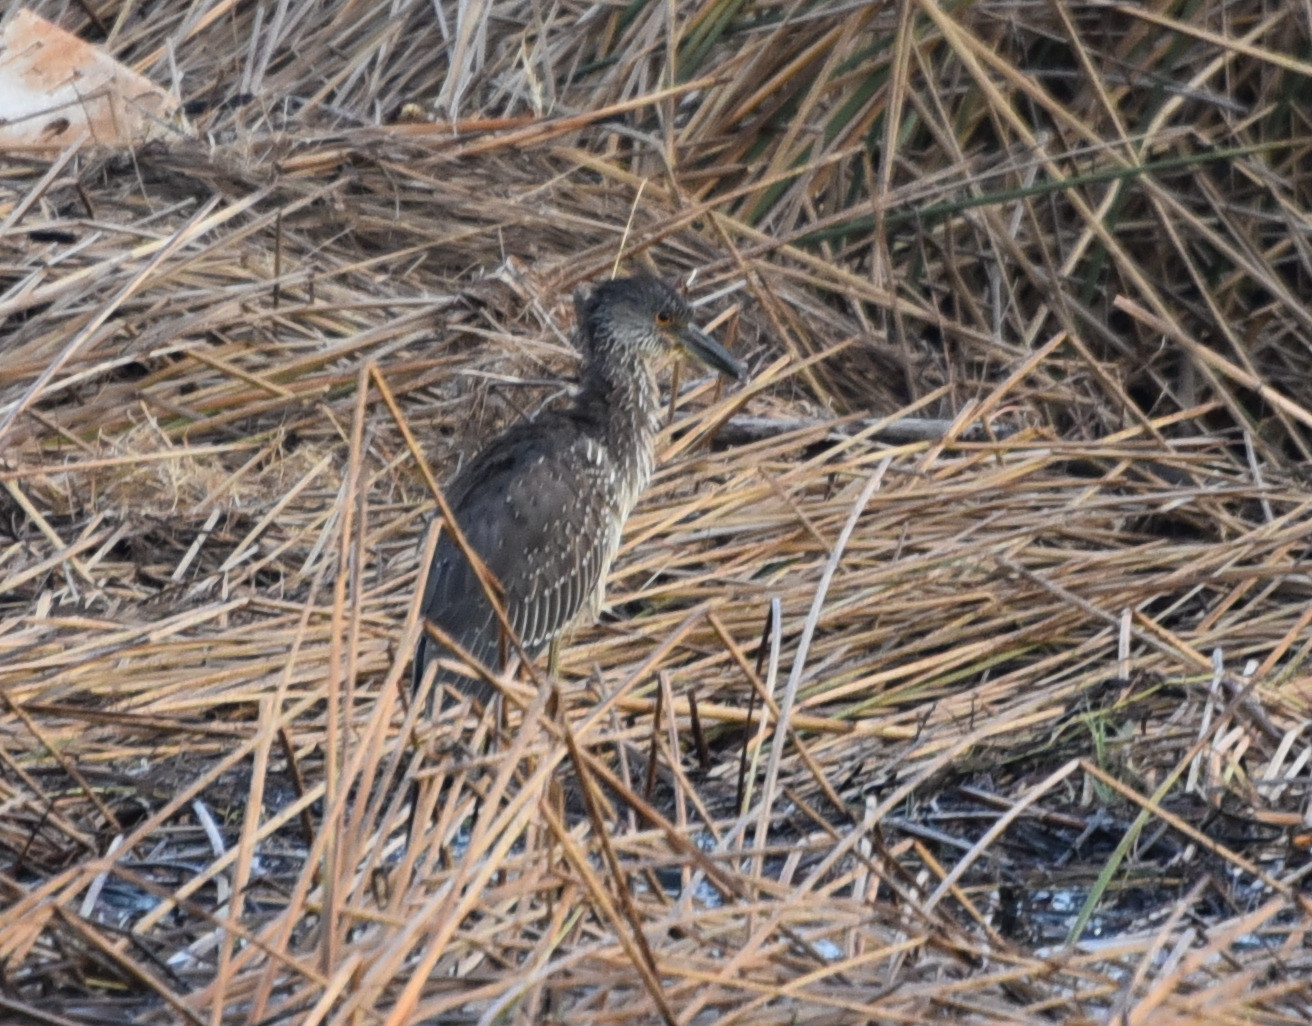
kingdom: Animalia
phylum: Chordata
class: Aves
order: Pelecaniformes
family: Ardeidae
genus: Nyctanassa
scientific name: Nyctanassa violacea
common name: Yellow-crowned night heron
